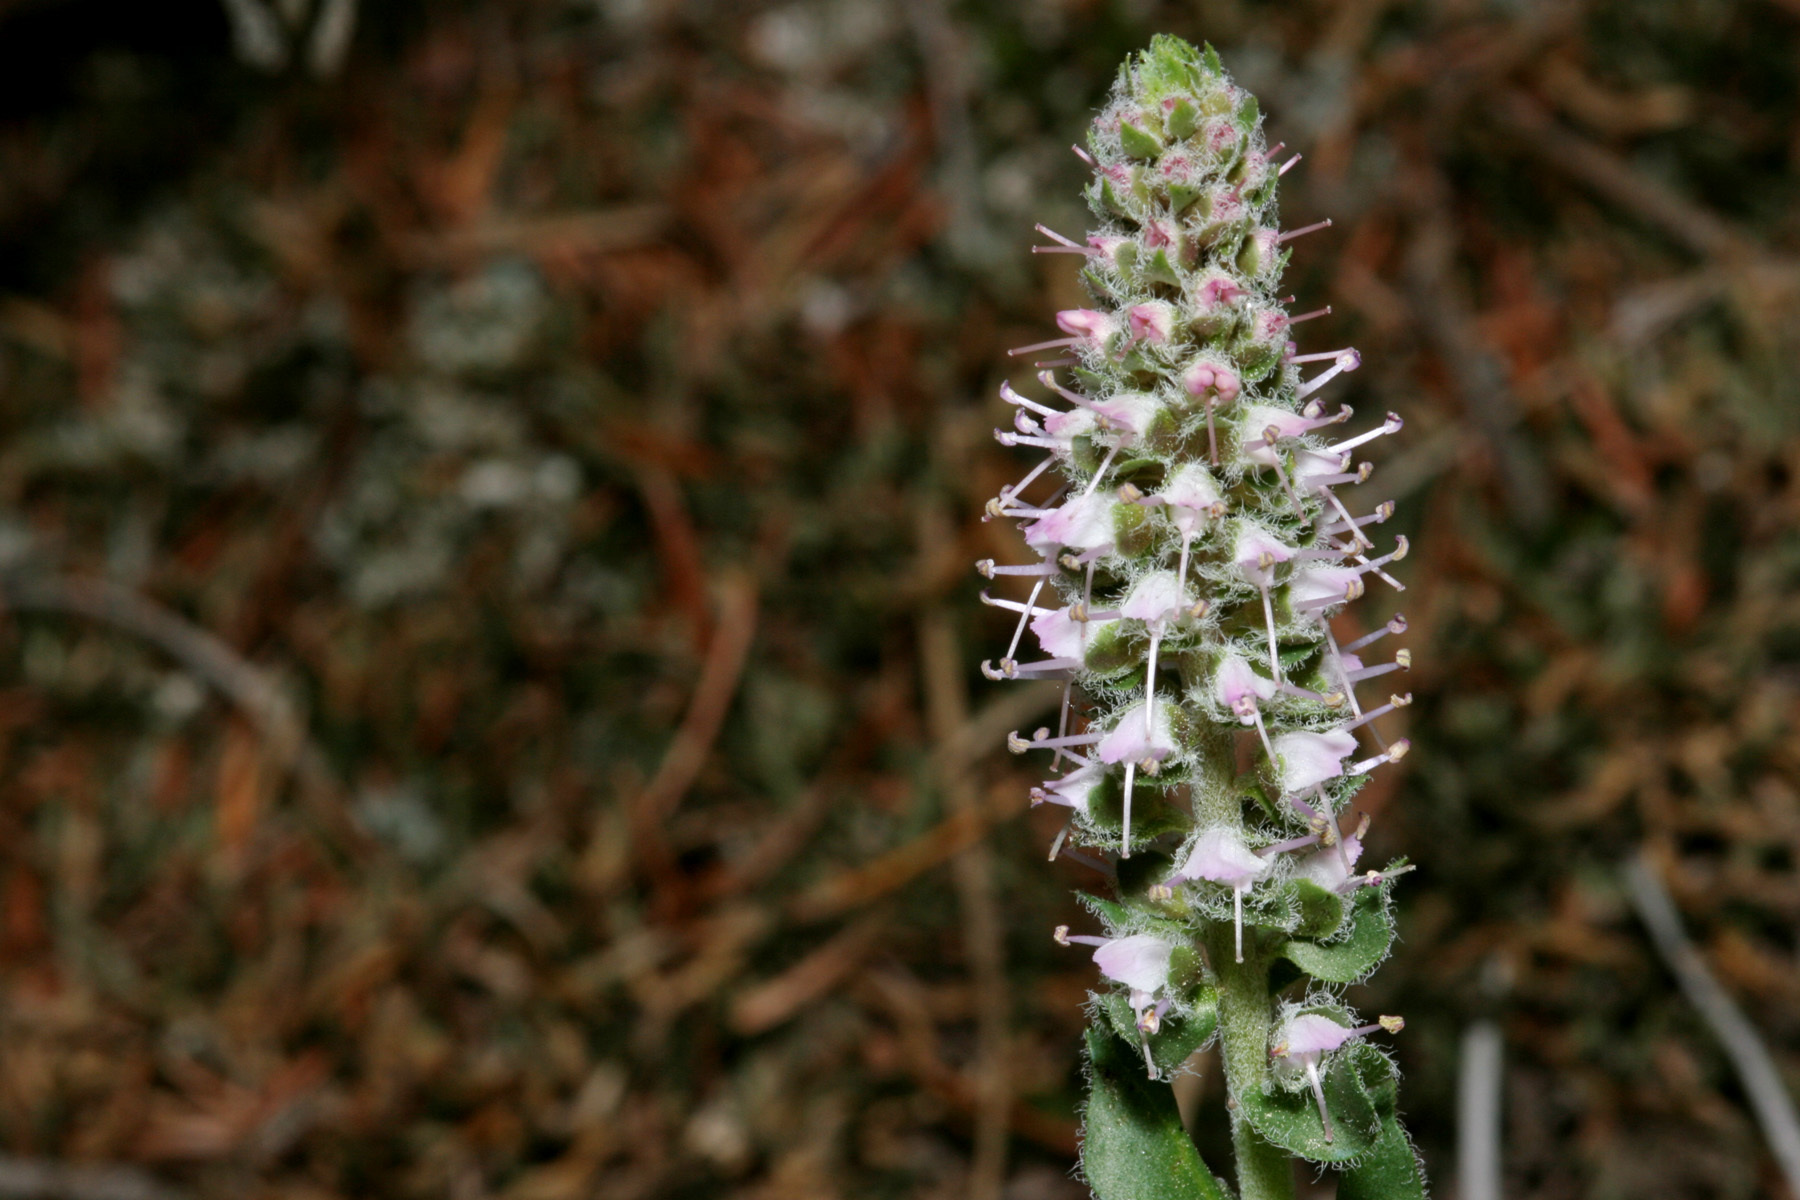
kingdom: Plantae
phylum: Tracheophyta
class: Magnoliopsida
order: Lamiales
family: Plantaginaceae
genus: Veronica
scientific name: Veronica plantaginea
